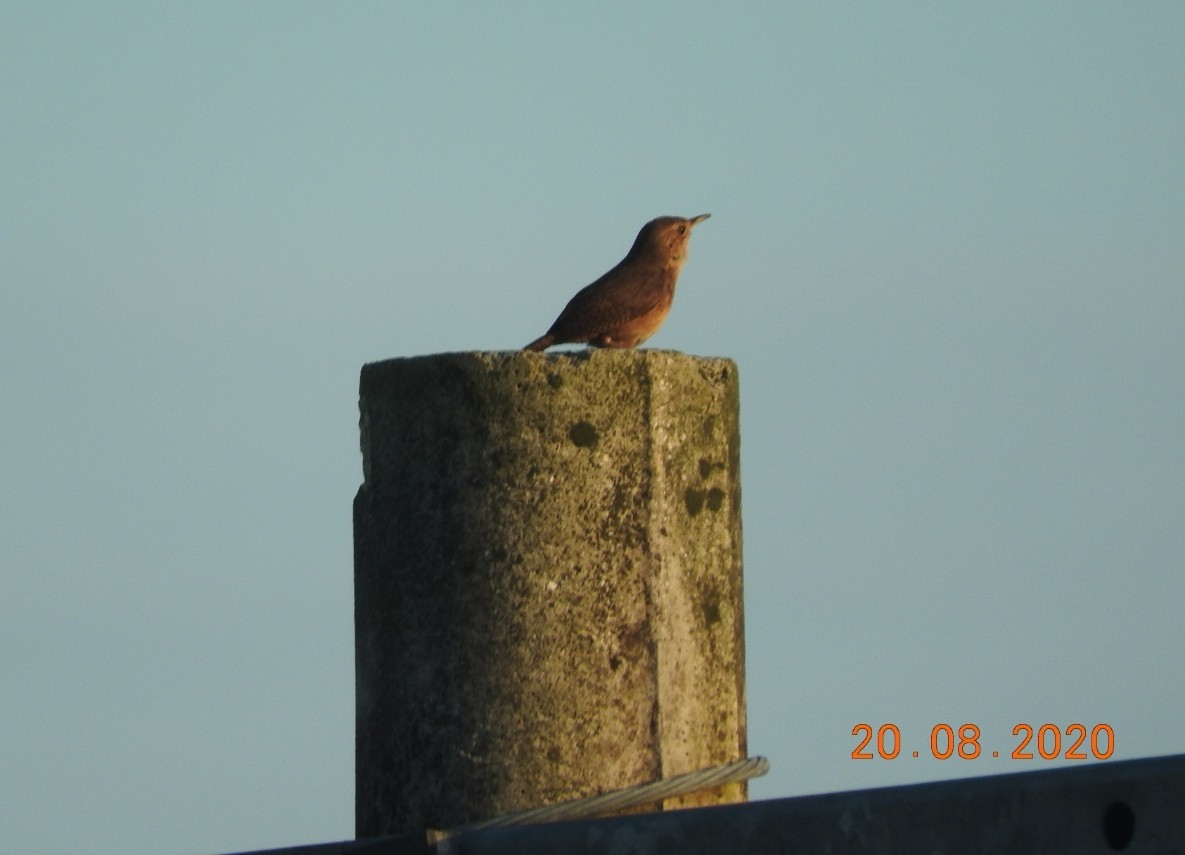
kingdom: Animalia
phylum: Chordata
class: Aves
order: Passeriformes
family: Troglodytidae
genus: Troglodytes
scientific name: Troglodytes aedon
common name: House wren
